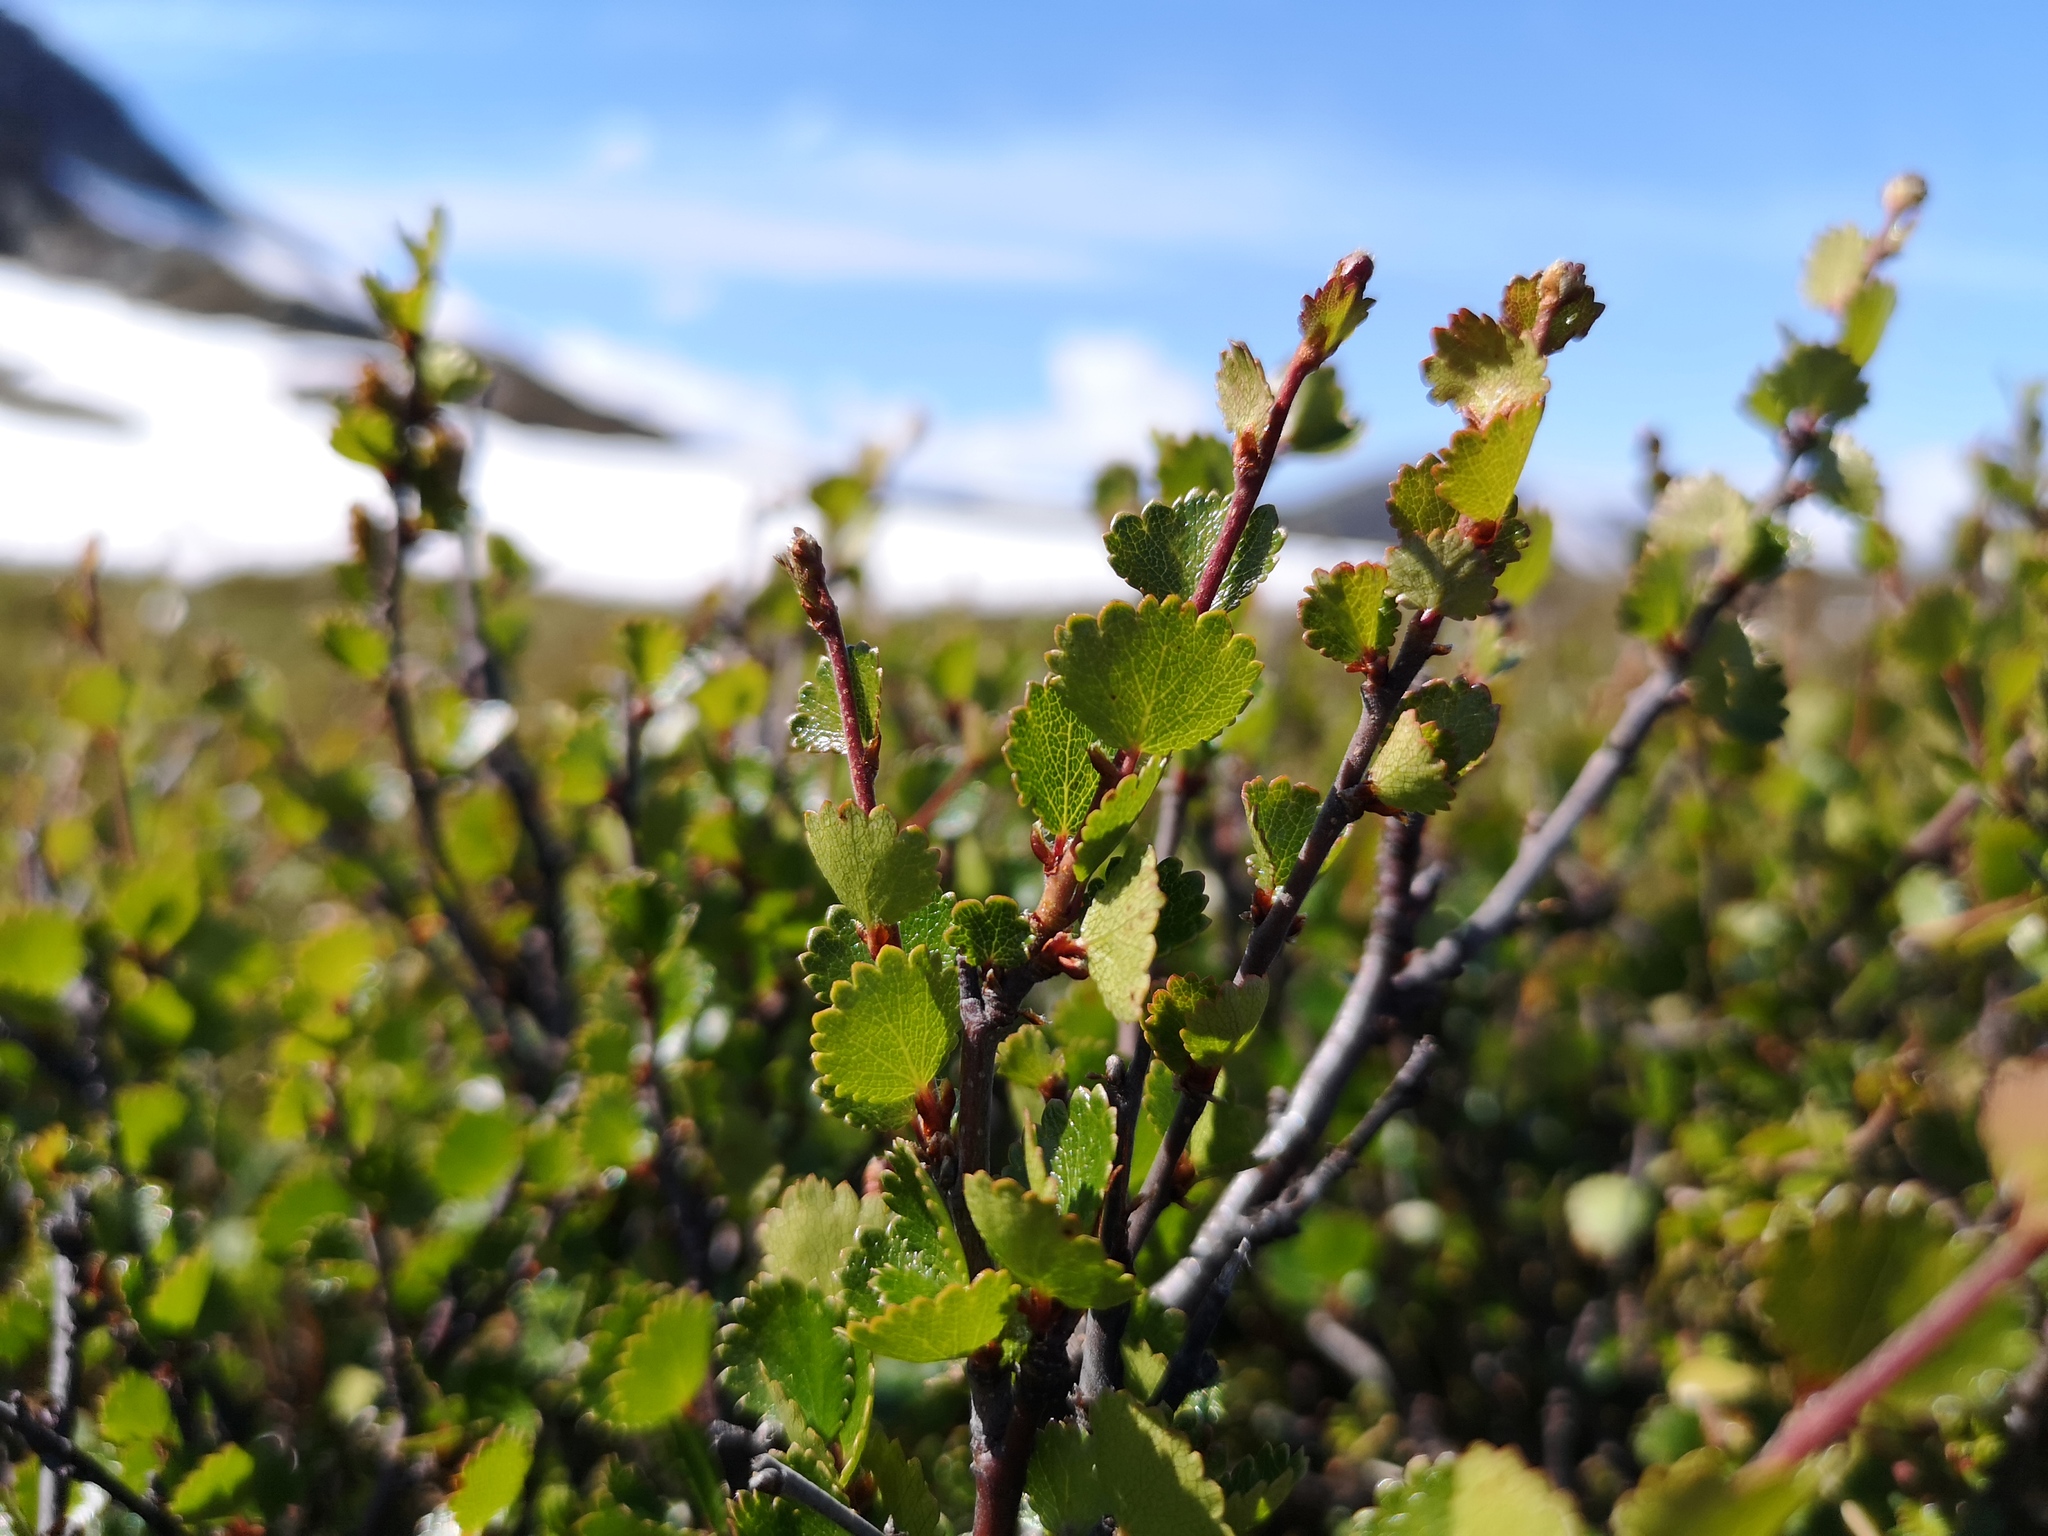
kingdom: Plantae
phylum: Tracheophyta
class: Magnoliopsida
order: Fagales
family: Betulaceae
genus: Betula
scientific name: Betula nana
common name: Arctic dwarf birch
